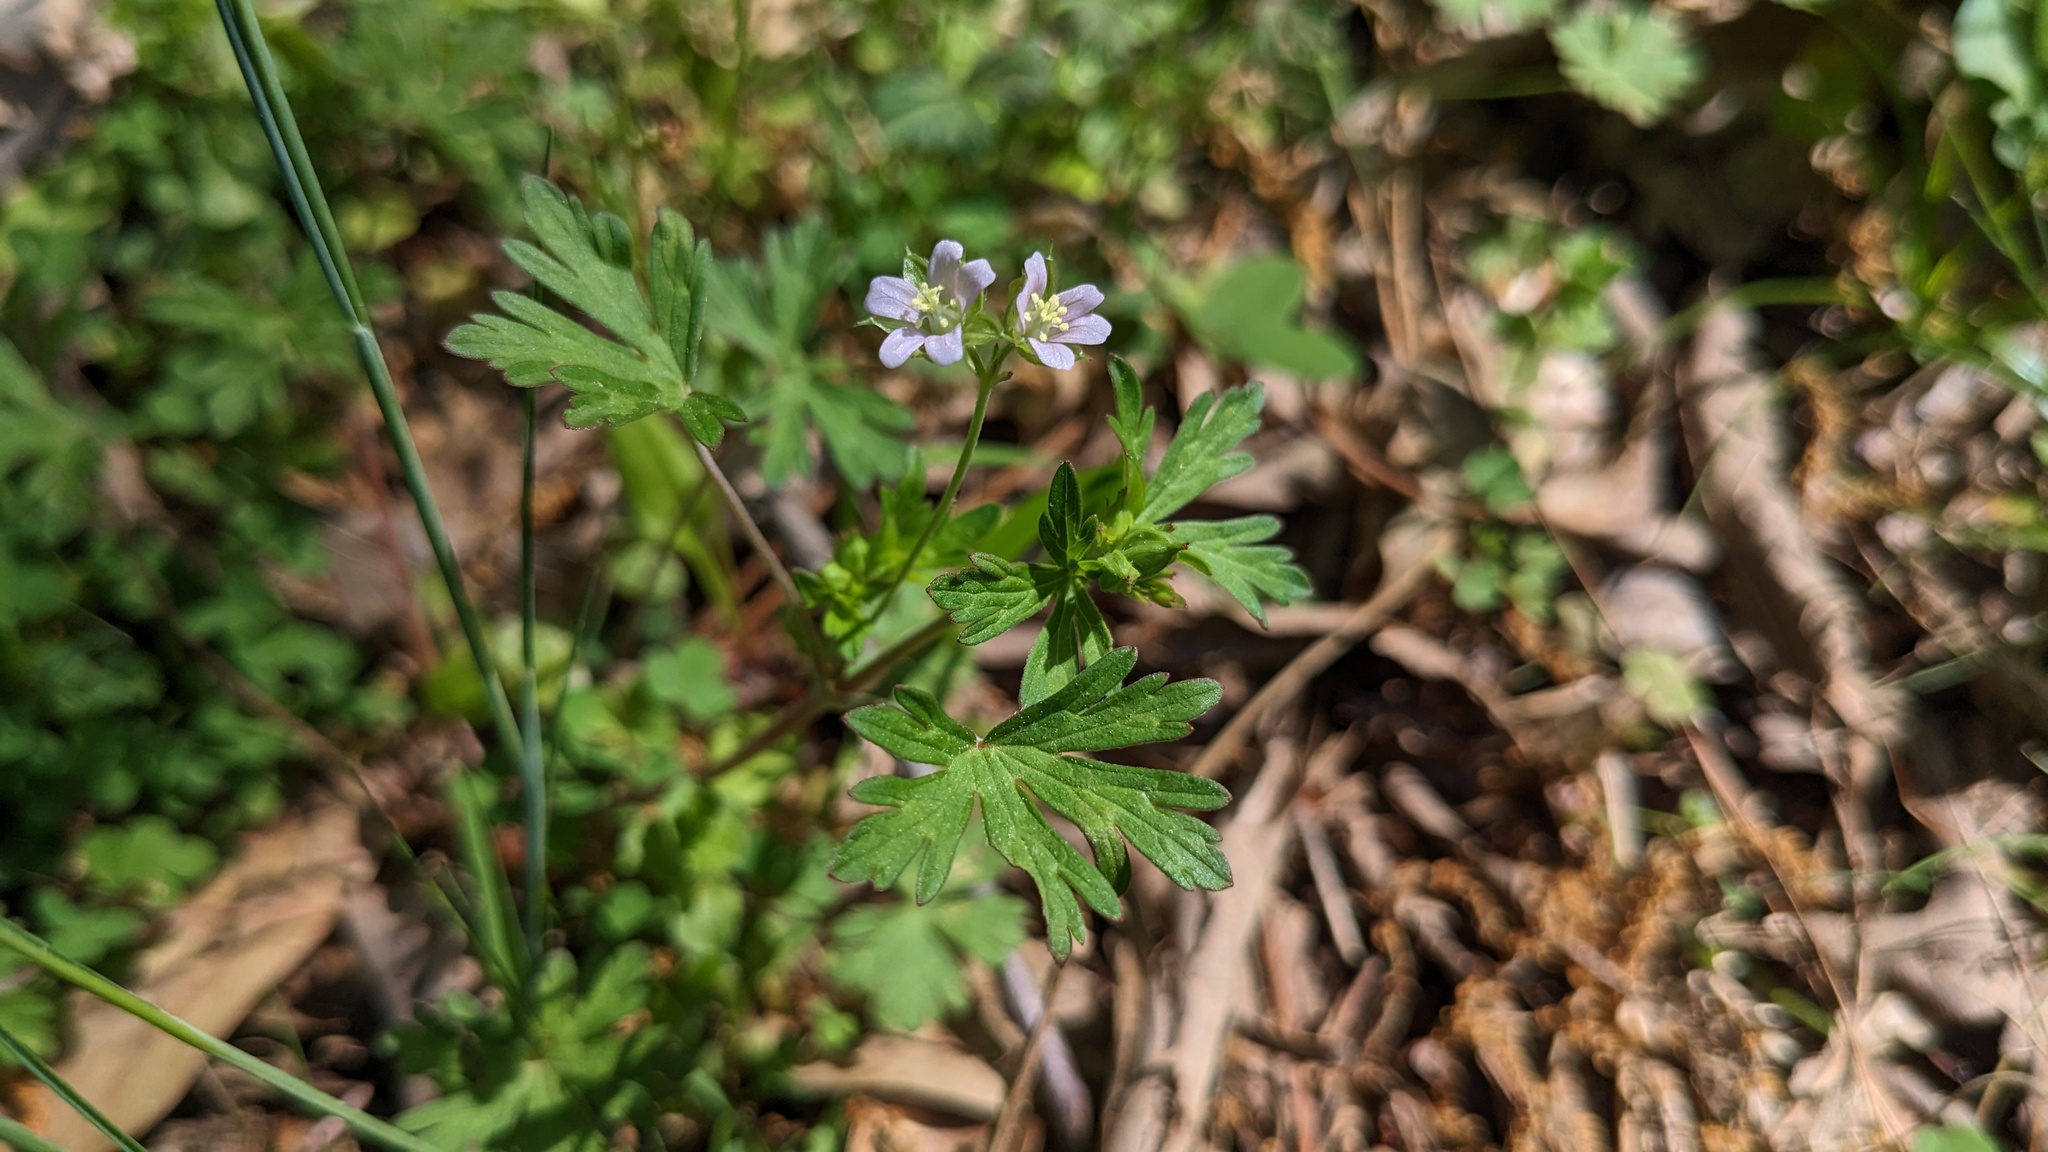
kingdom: Plantae
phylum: Tracheophyta
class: Magnoliopsida
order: Geraniales
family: Geraniaceae
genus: Geranium
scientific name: Geranium carolinianum
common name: Carolina crane's-bill
